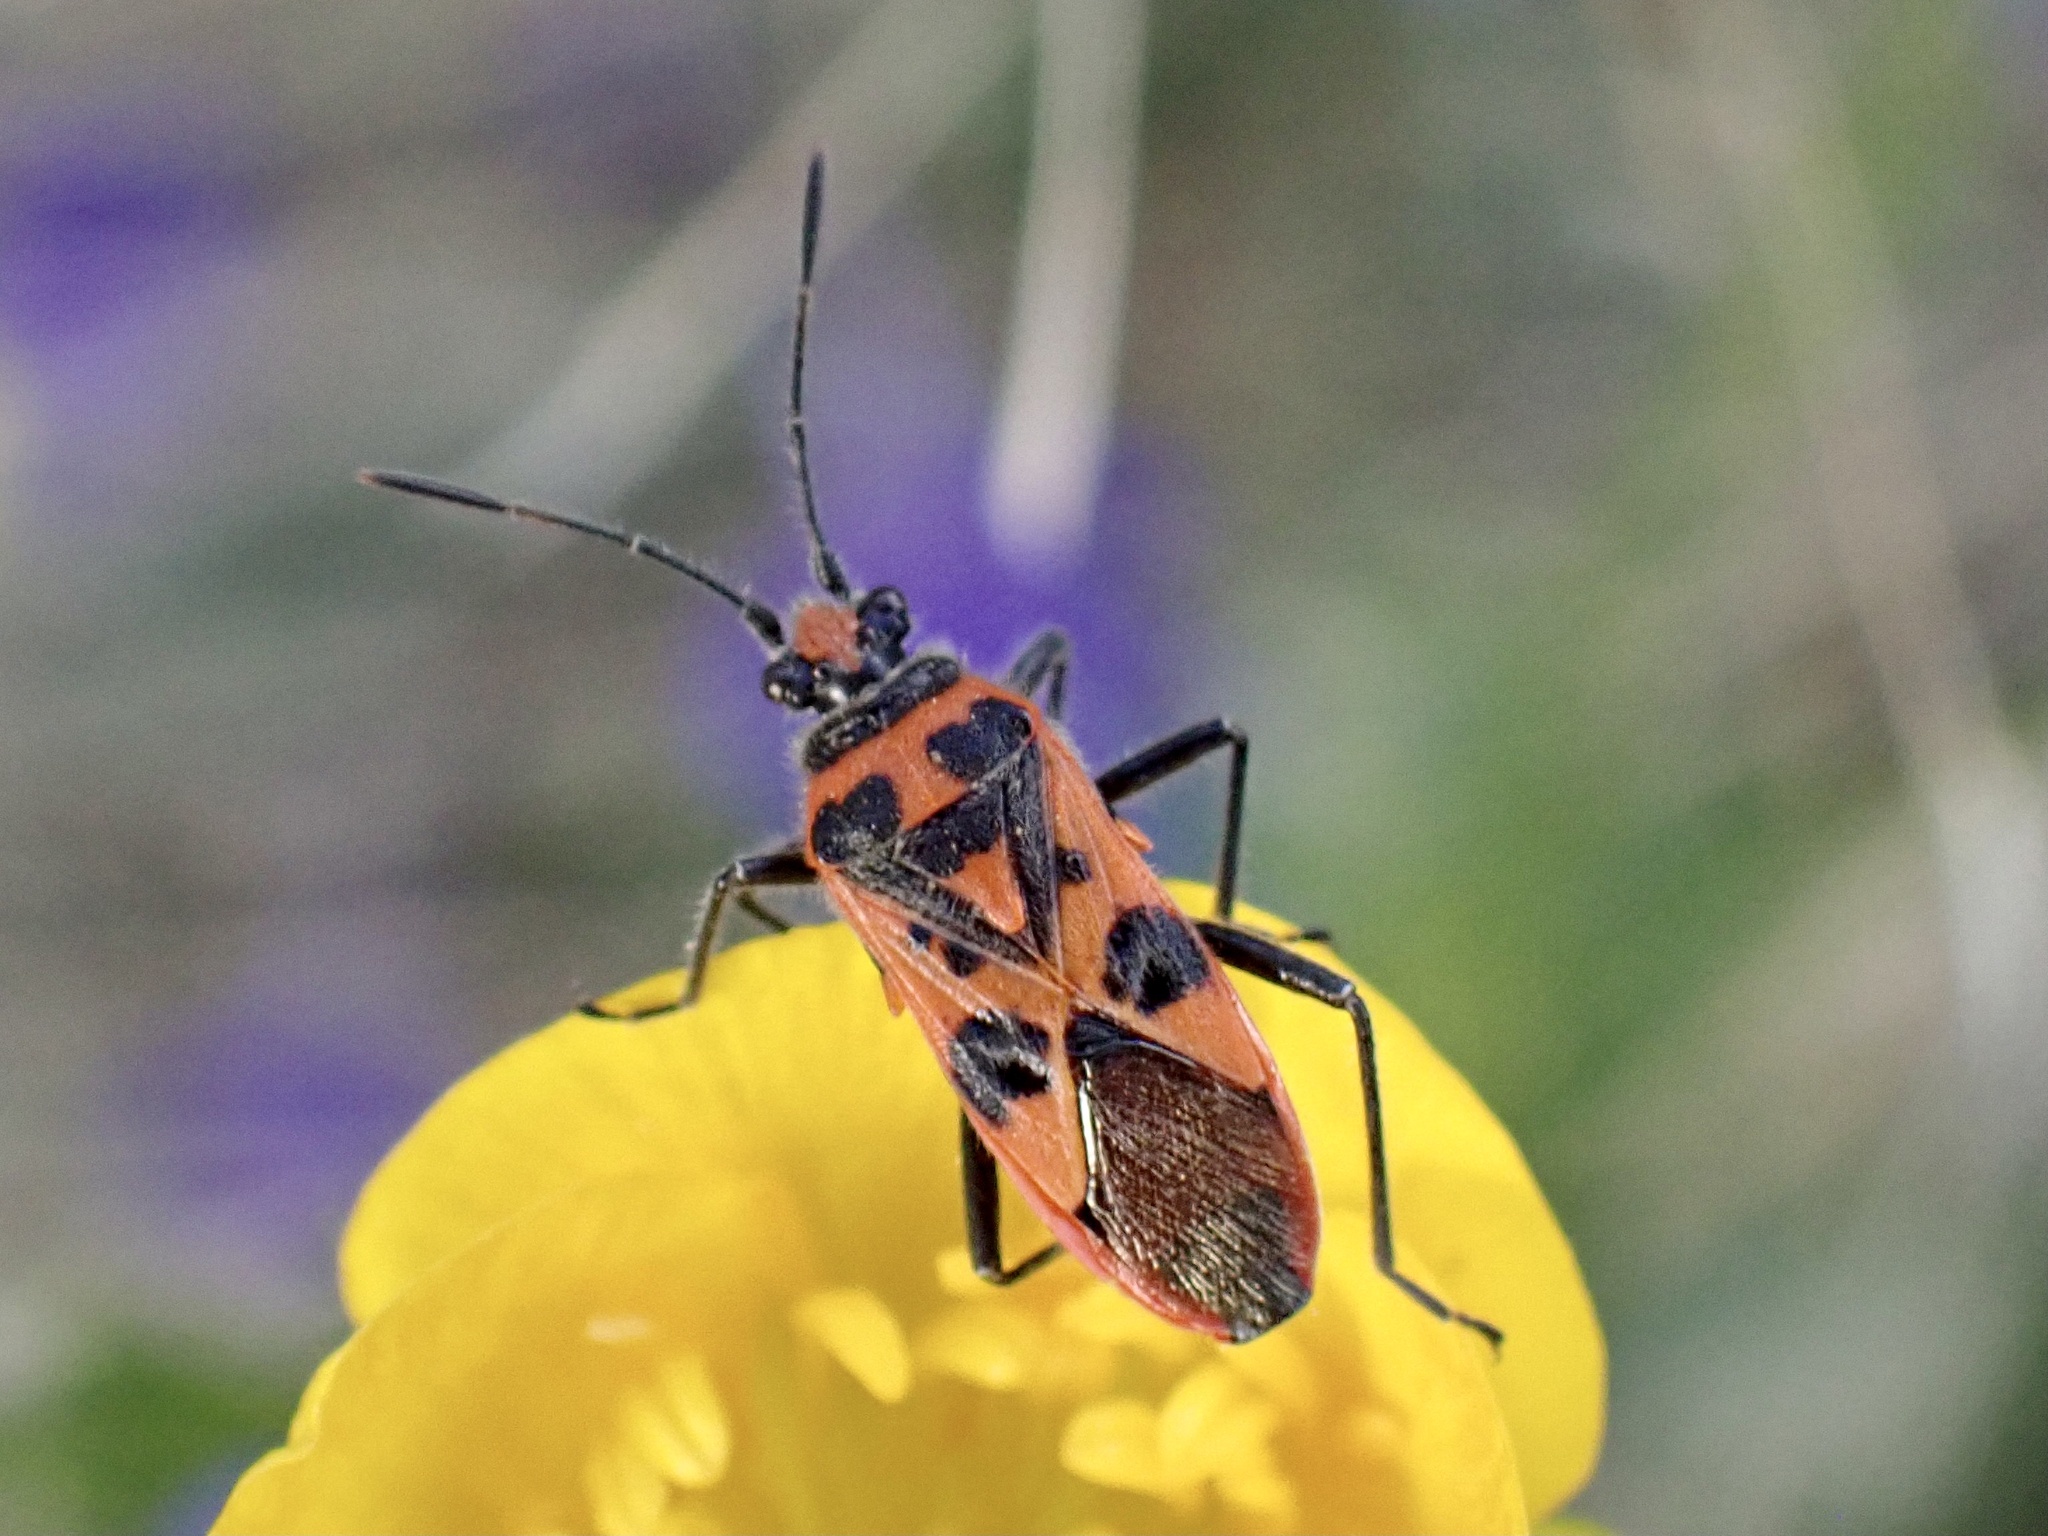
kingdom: Animalia
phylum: Arthropoda
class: Insecta
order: Hemiptera
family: Rhopalidae
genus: Corizus
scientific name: Corizus hyoscyami
